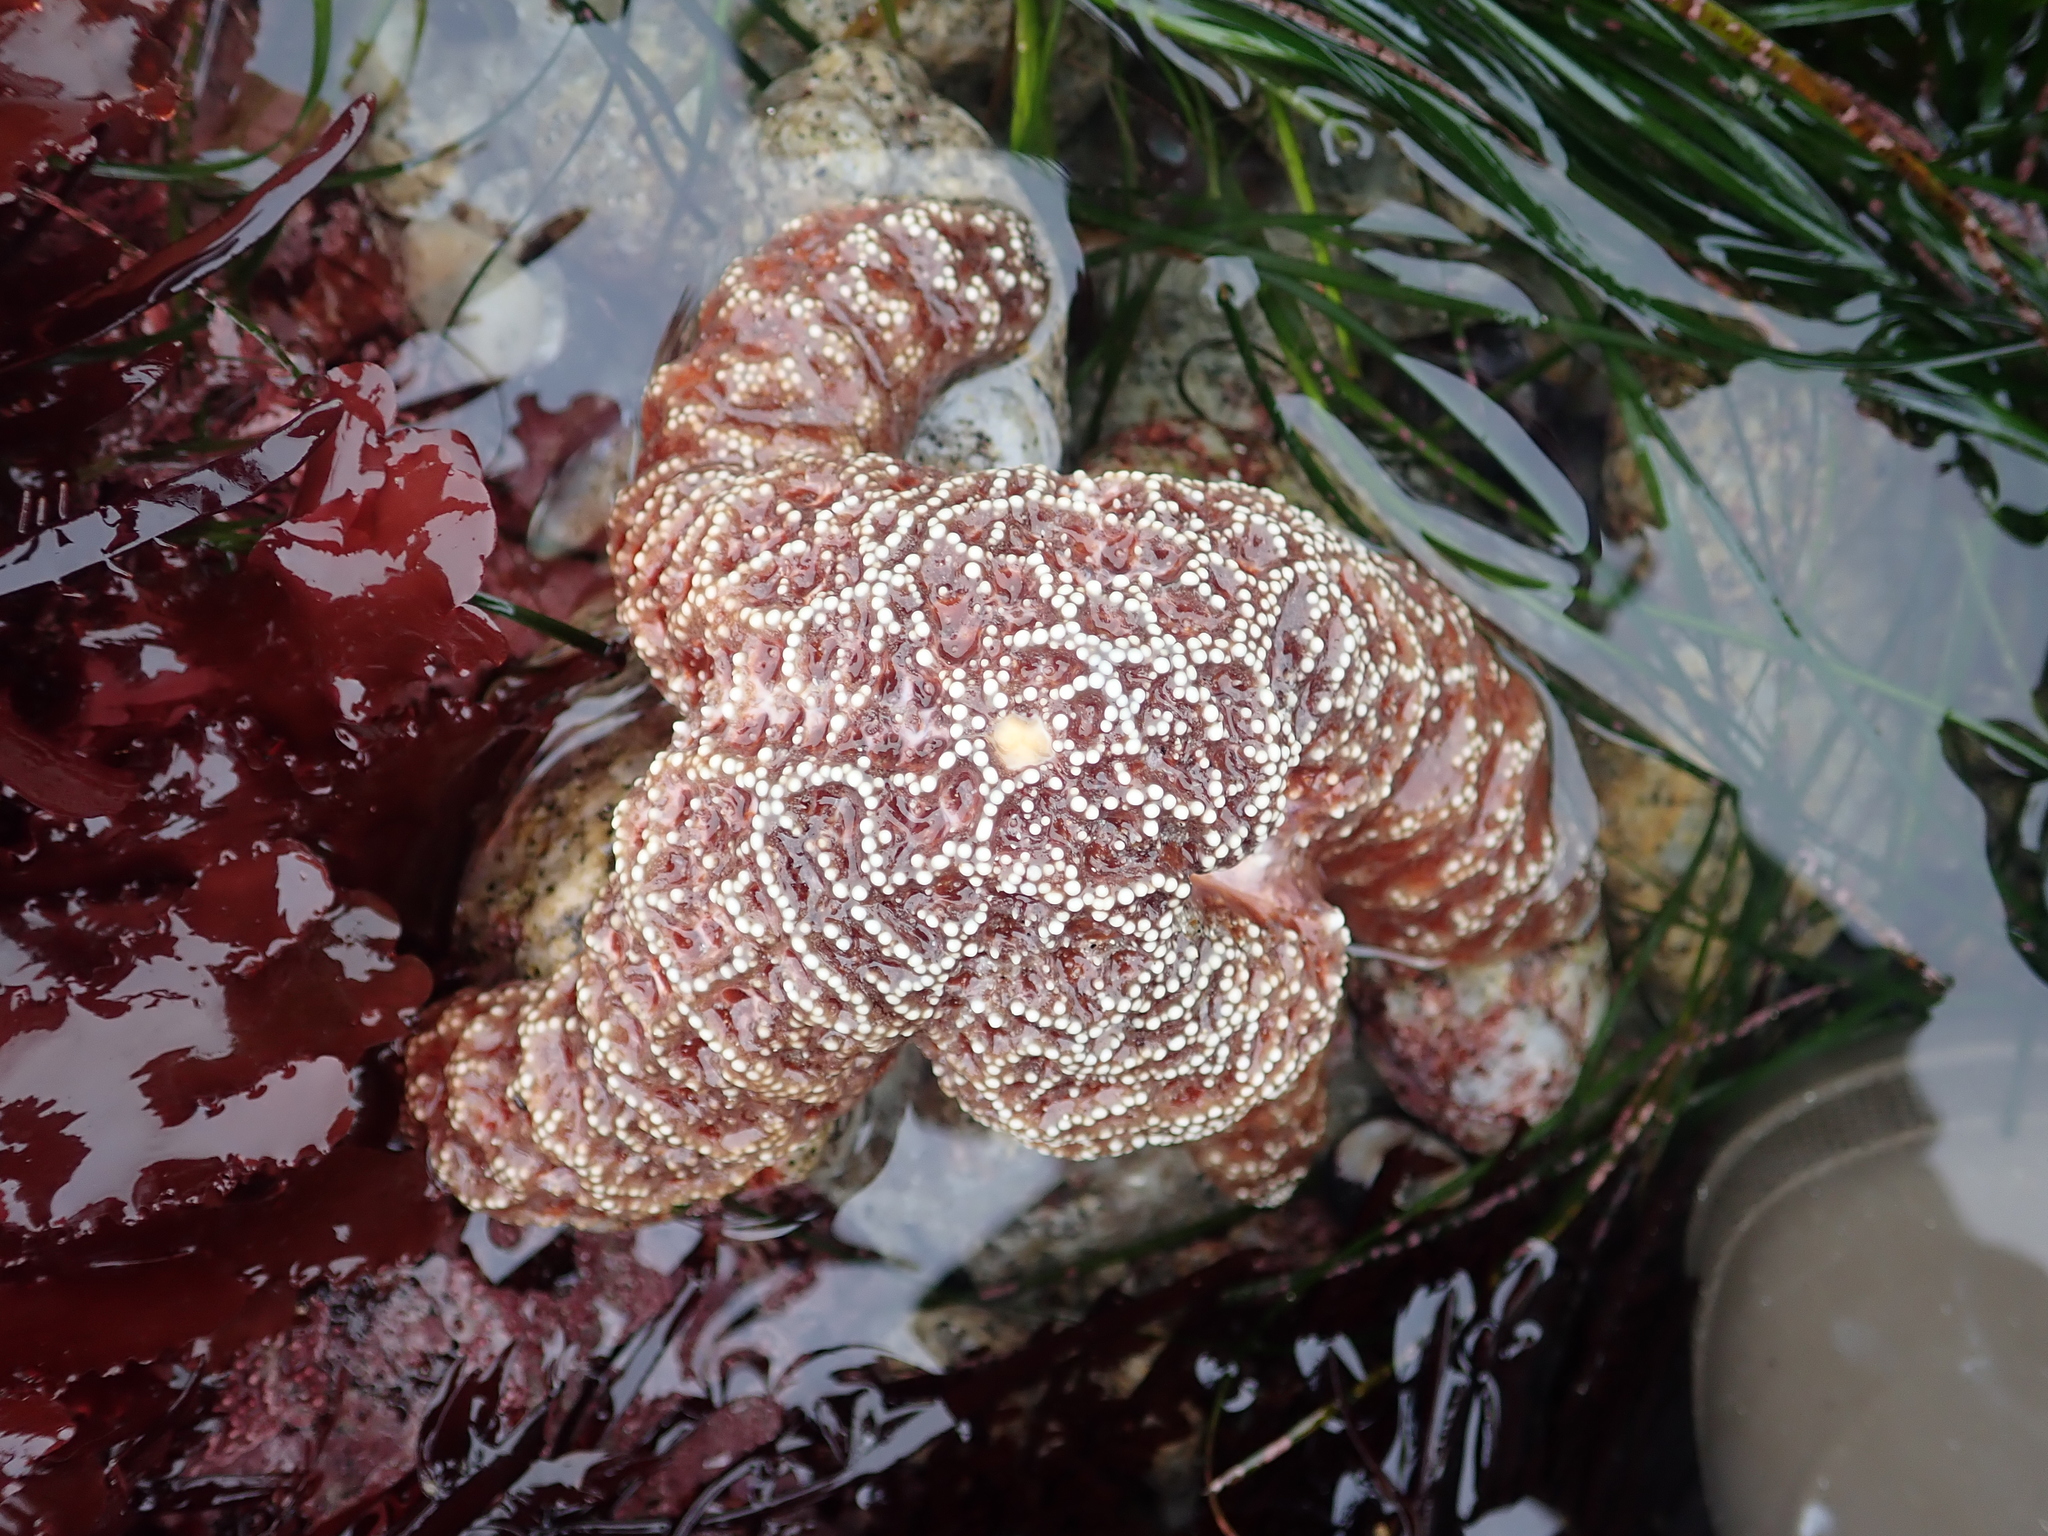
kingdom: Animalia
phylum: Echinodermata
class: Asteroidea
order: Forcipulatida
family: Asteriidae
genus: Pisaster
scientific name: Pisaster ochraceus
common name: Ochre stars
